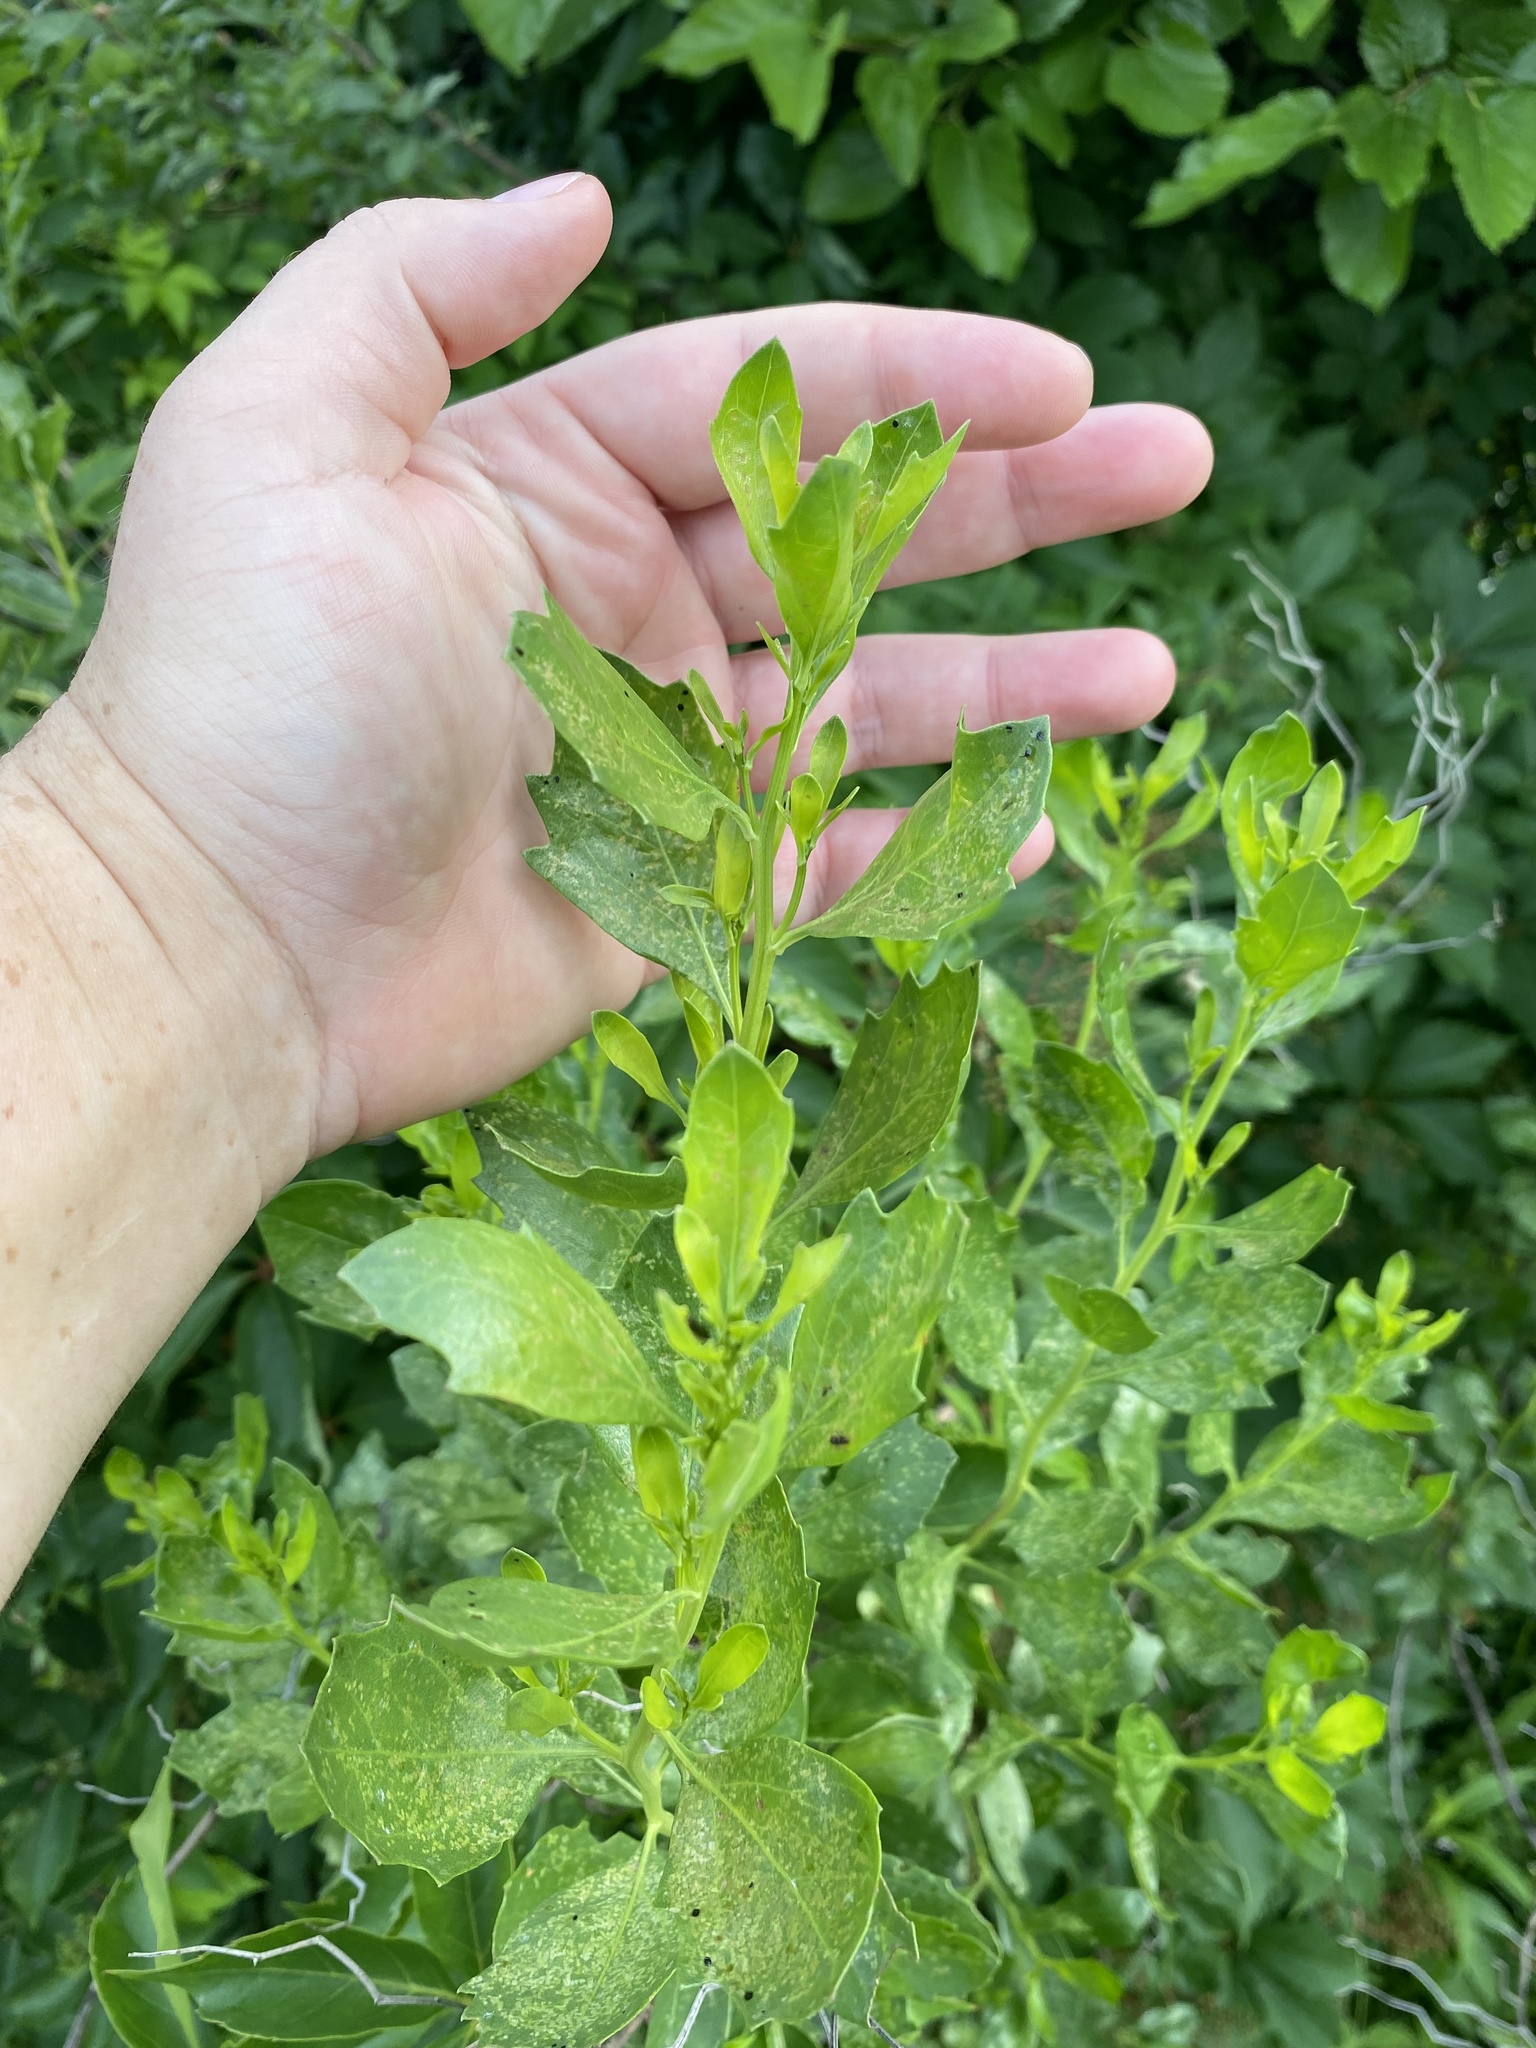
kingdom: Plantae
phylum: Tracheophyta
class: Magnoliopsida
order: Asterales
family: Asteraceae
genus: Baccharis
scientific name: Baccharis halimifolia
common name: Eastern baccharis
